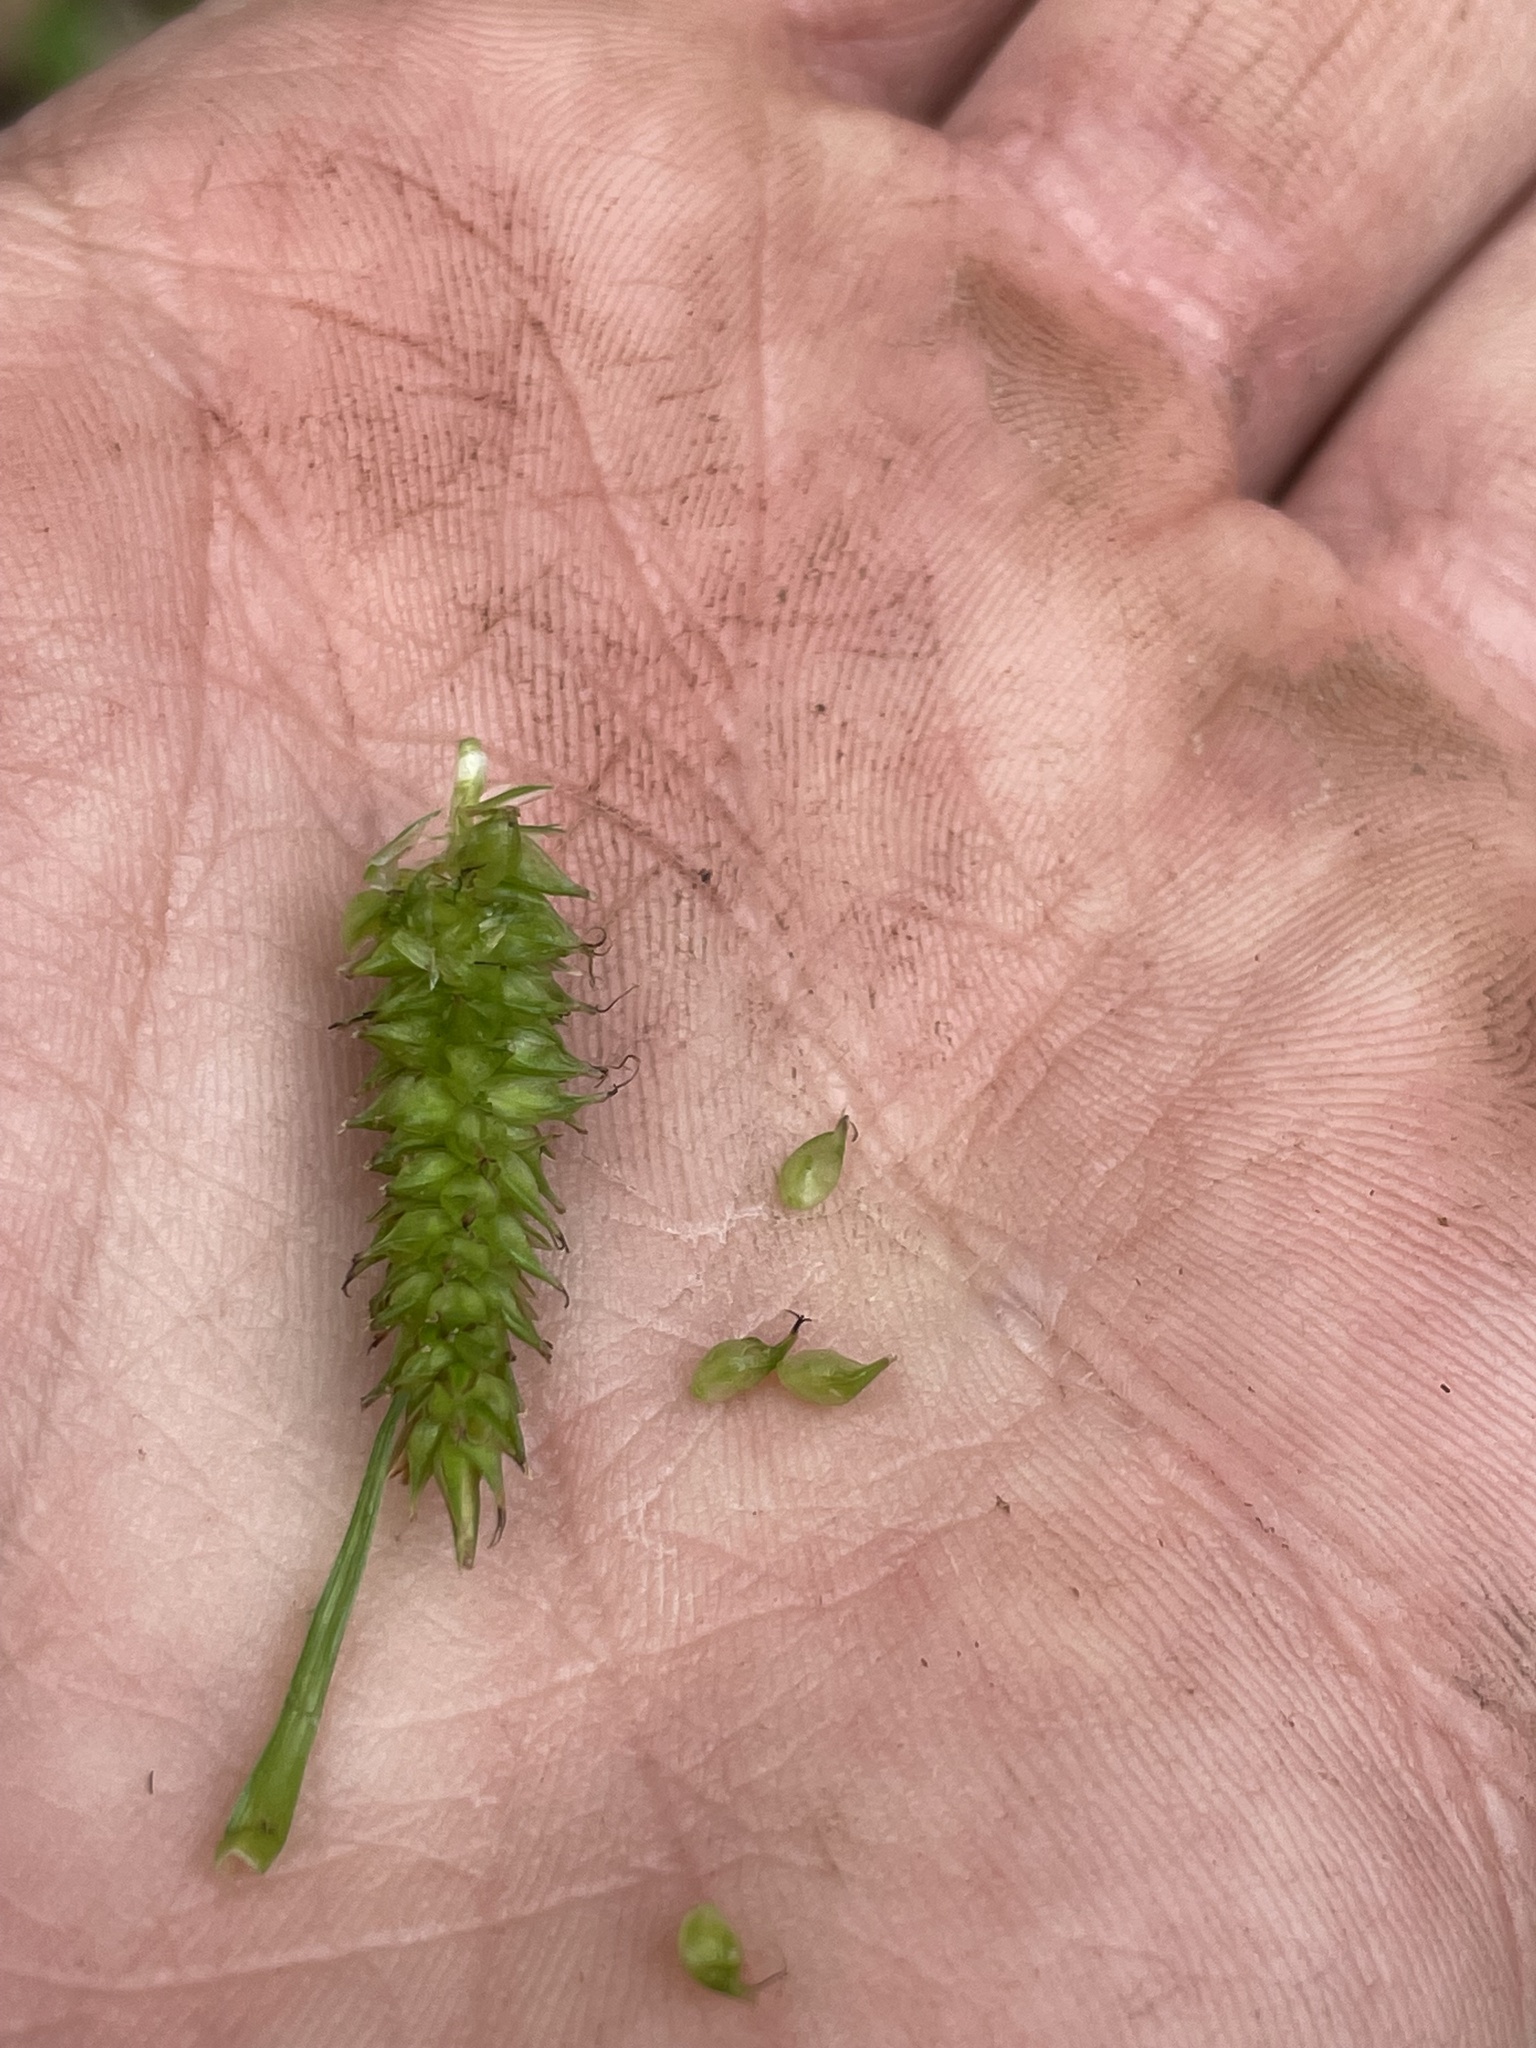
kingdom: Plantae
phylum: Tracheophyta
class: Liliopsida
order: Poales
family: Cyperaceae
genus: Carex
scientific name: Carex scabrata
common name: Eastern rough sedge
